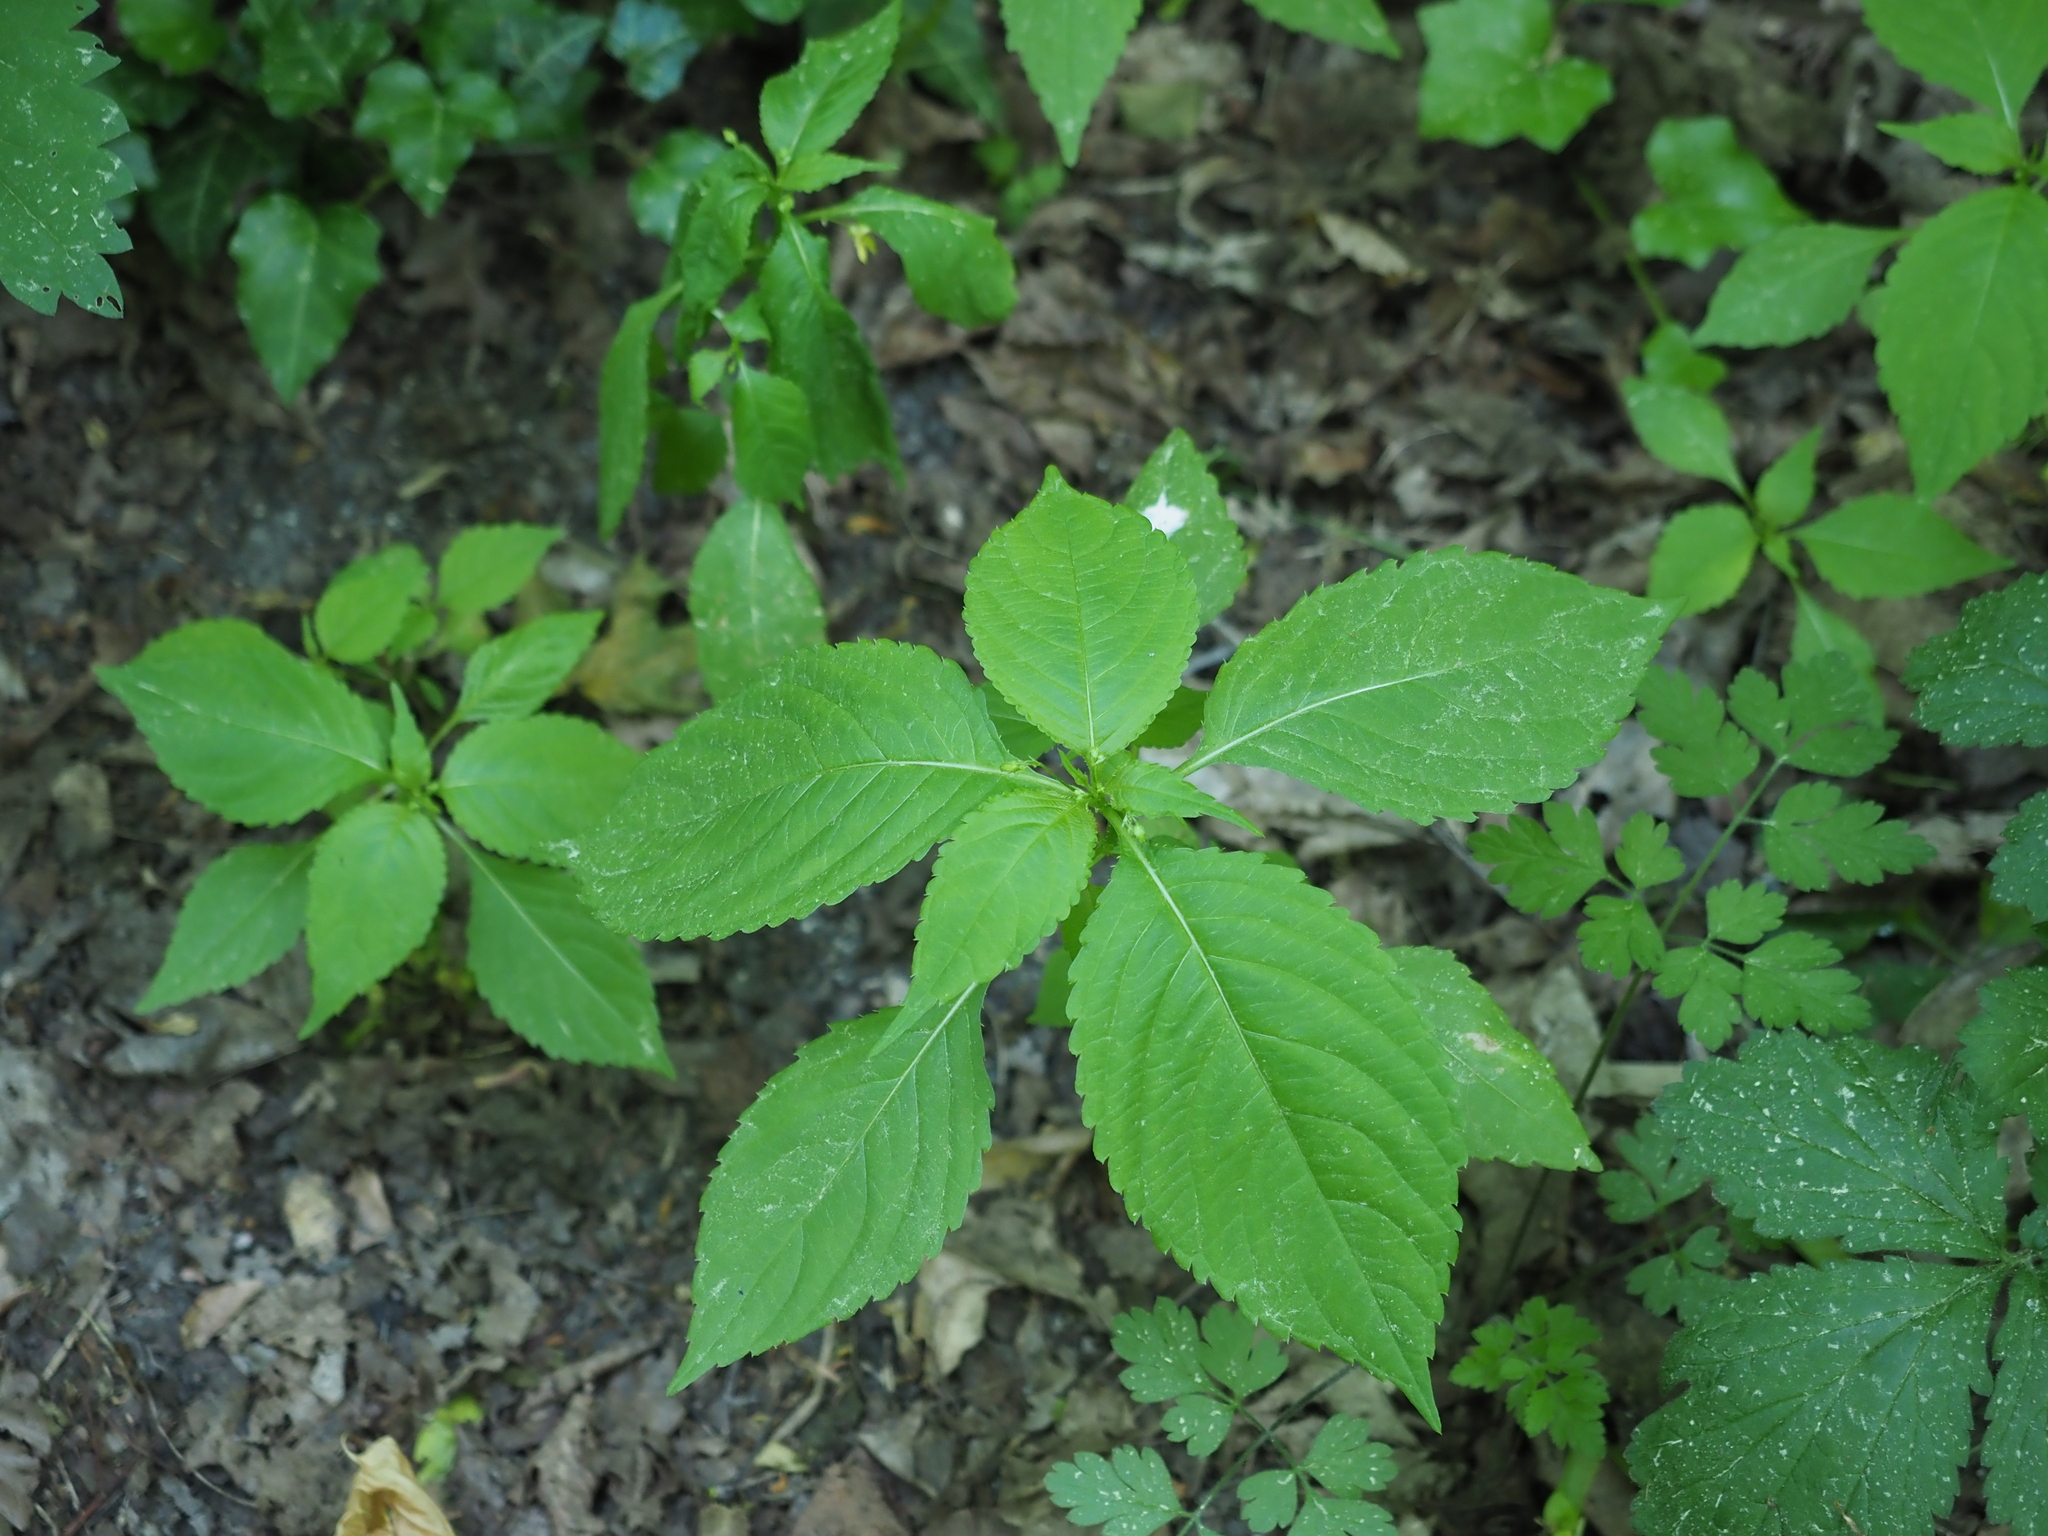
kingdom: Plantae
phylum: Tracheophyta
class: Magnoliopsida
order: Ericales
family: Balsaminaceae
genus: Impatiens
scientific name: Impatiens parviflora
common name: Small balsam
